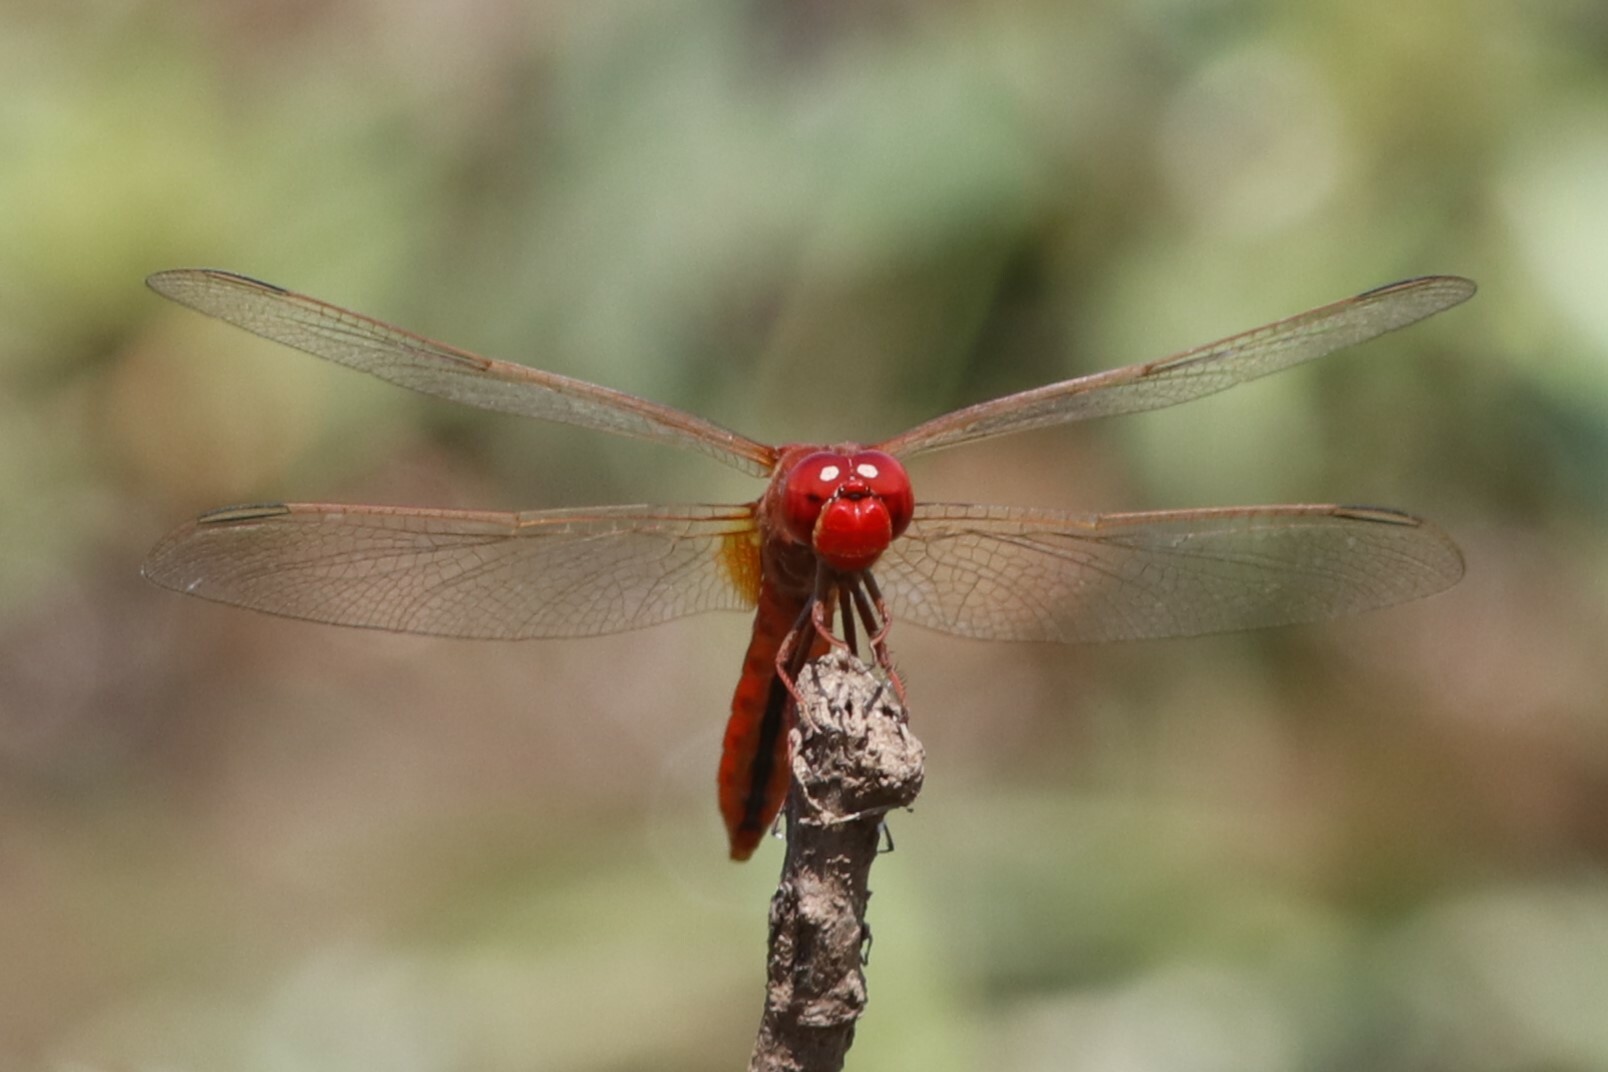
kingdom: Animalia
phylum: Arthropoda
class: Insecta
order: Odonata
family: Libellulidae
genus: Crocothemis
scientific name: Crocothemis erythraea
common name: Scarlet dragonfly
